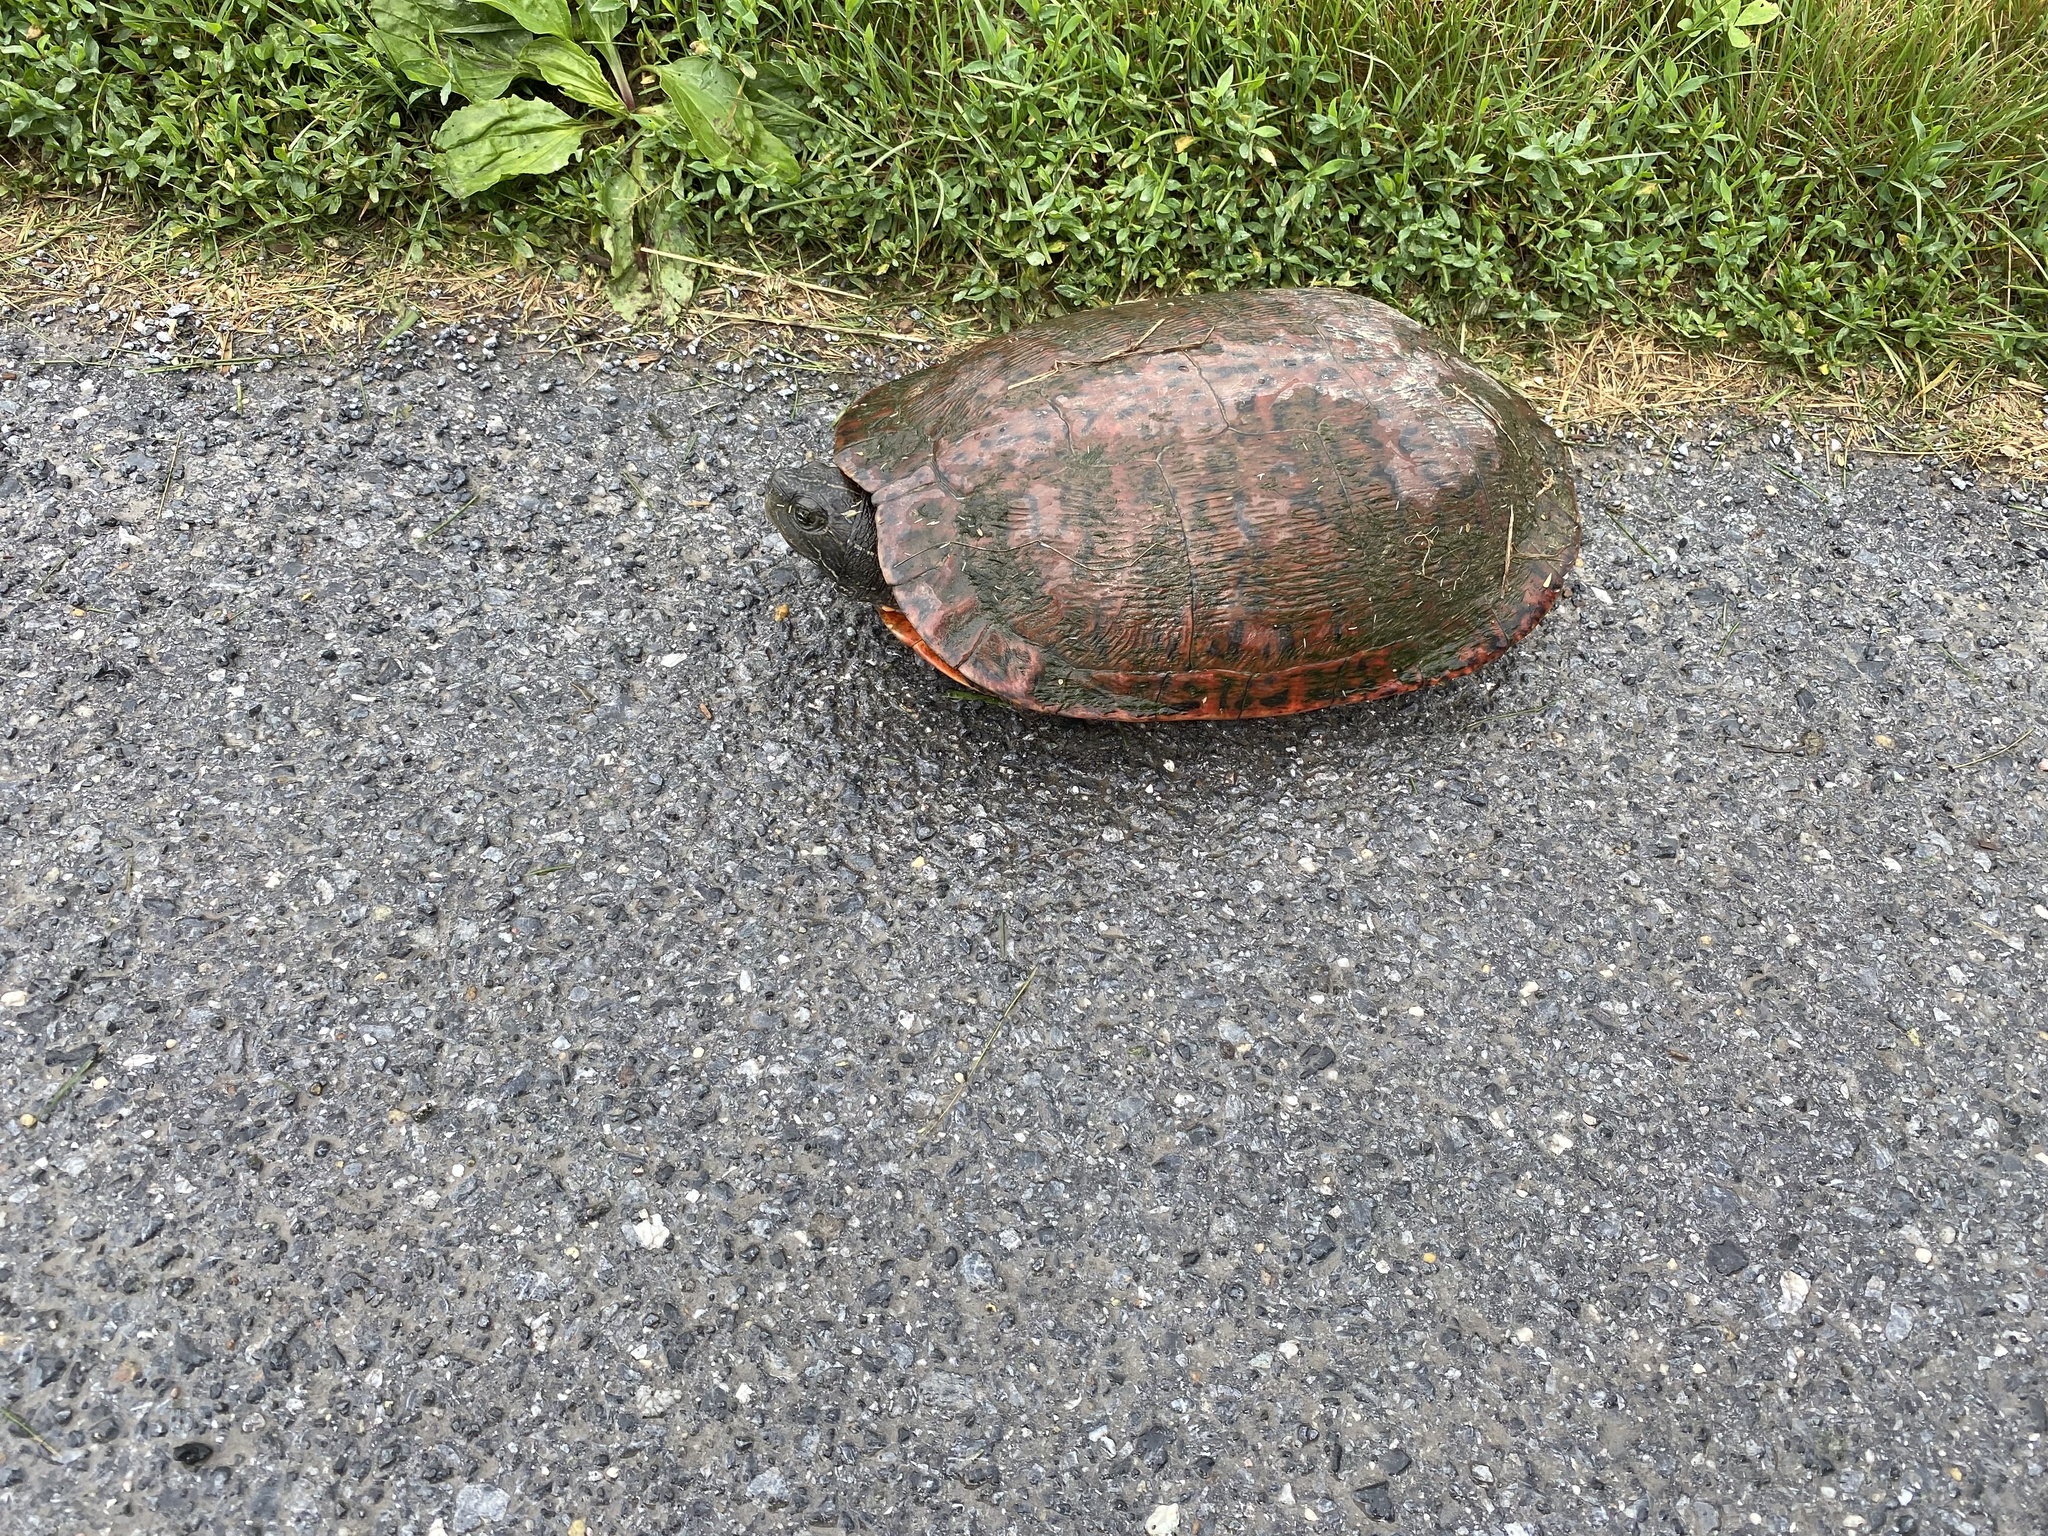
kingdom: Animalia
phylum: Chordata
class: Testudines
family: Emydidae
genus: Pseudemys
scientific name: Pseudemys rubriventris
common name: American red-bellied turtle
